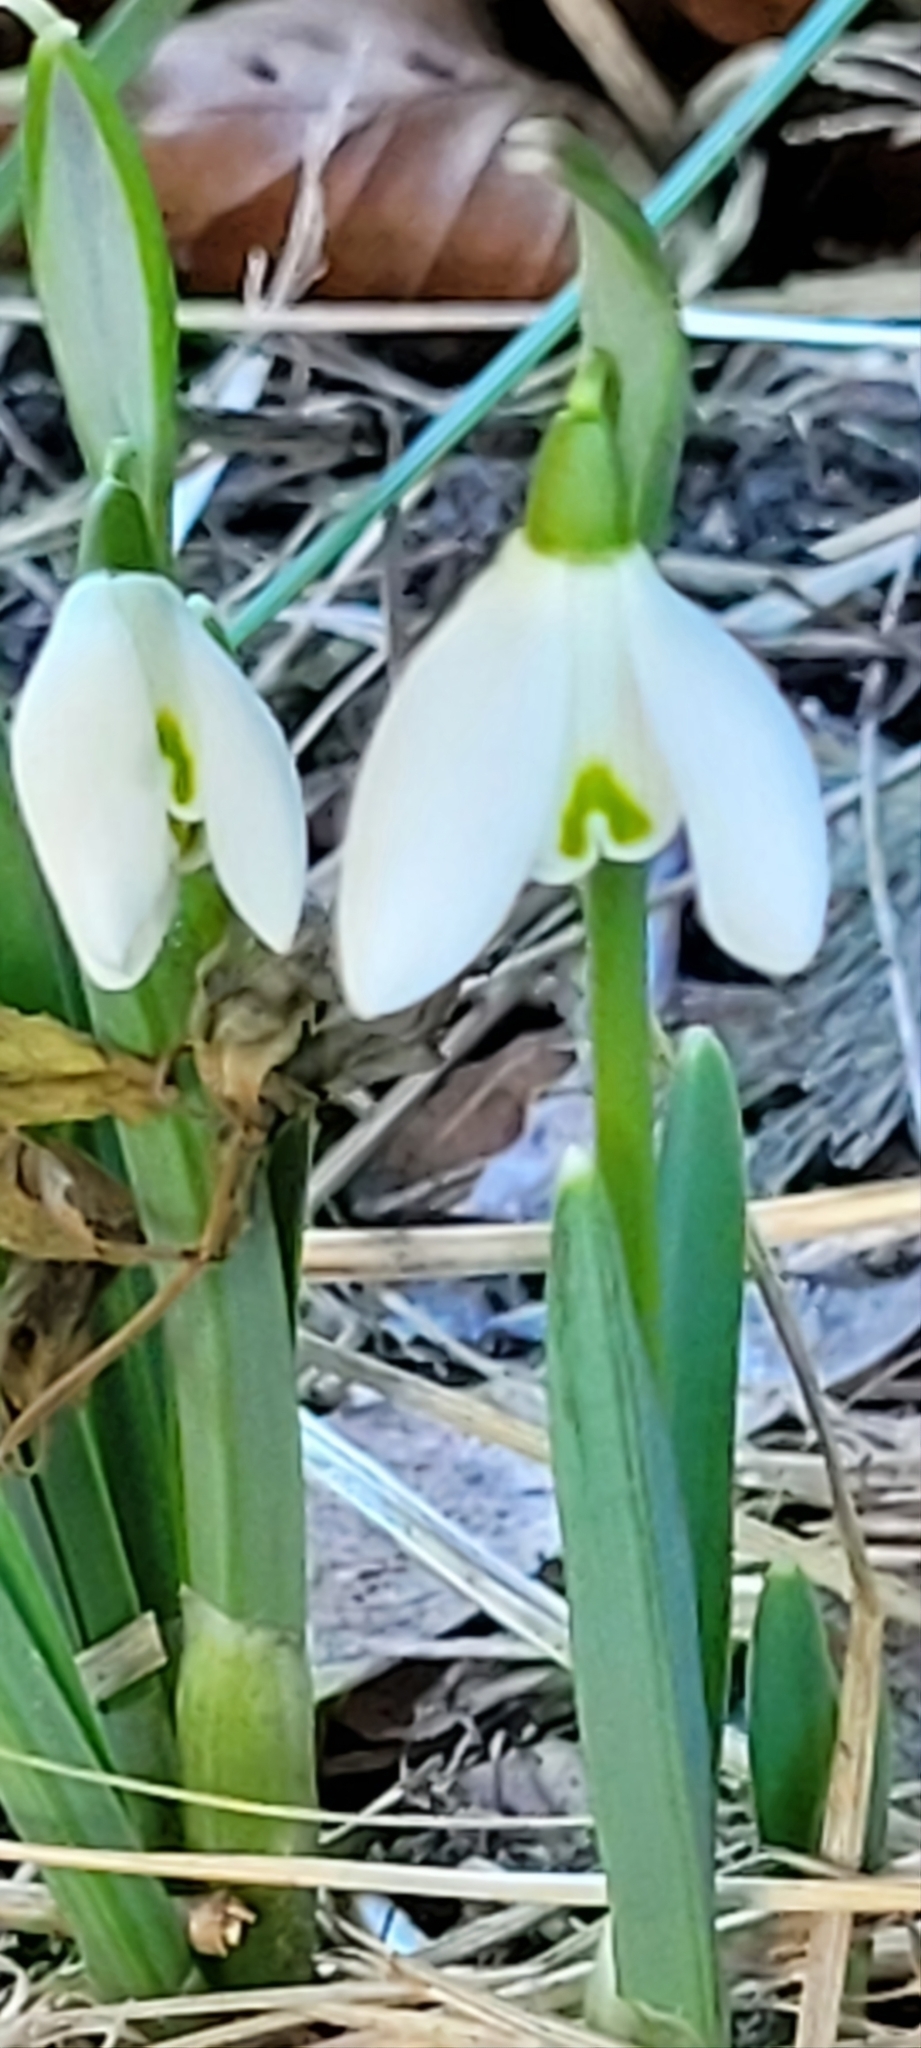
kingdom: Plantae
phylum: Tracheophyta
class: Liliopsida
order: Asparagales
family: Amaryllidaceae
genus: Galanthus
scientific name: Galanthus nivalis
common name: Snowdrop
